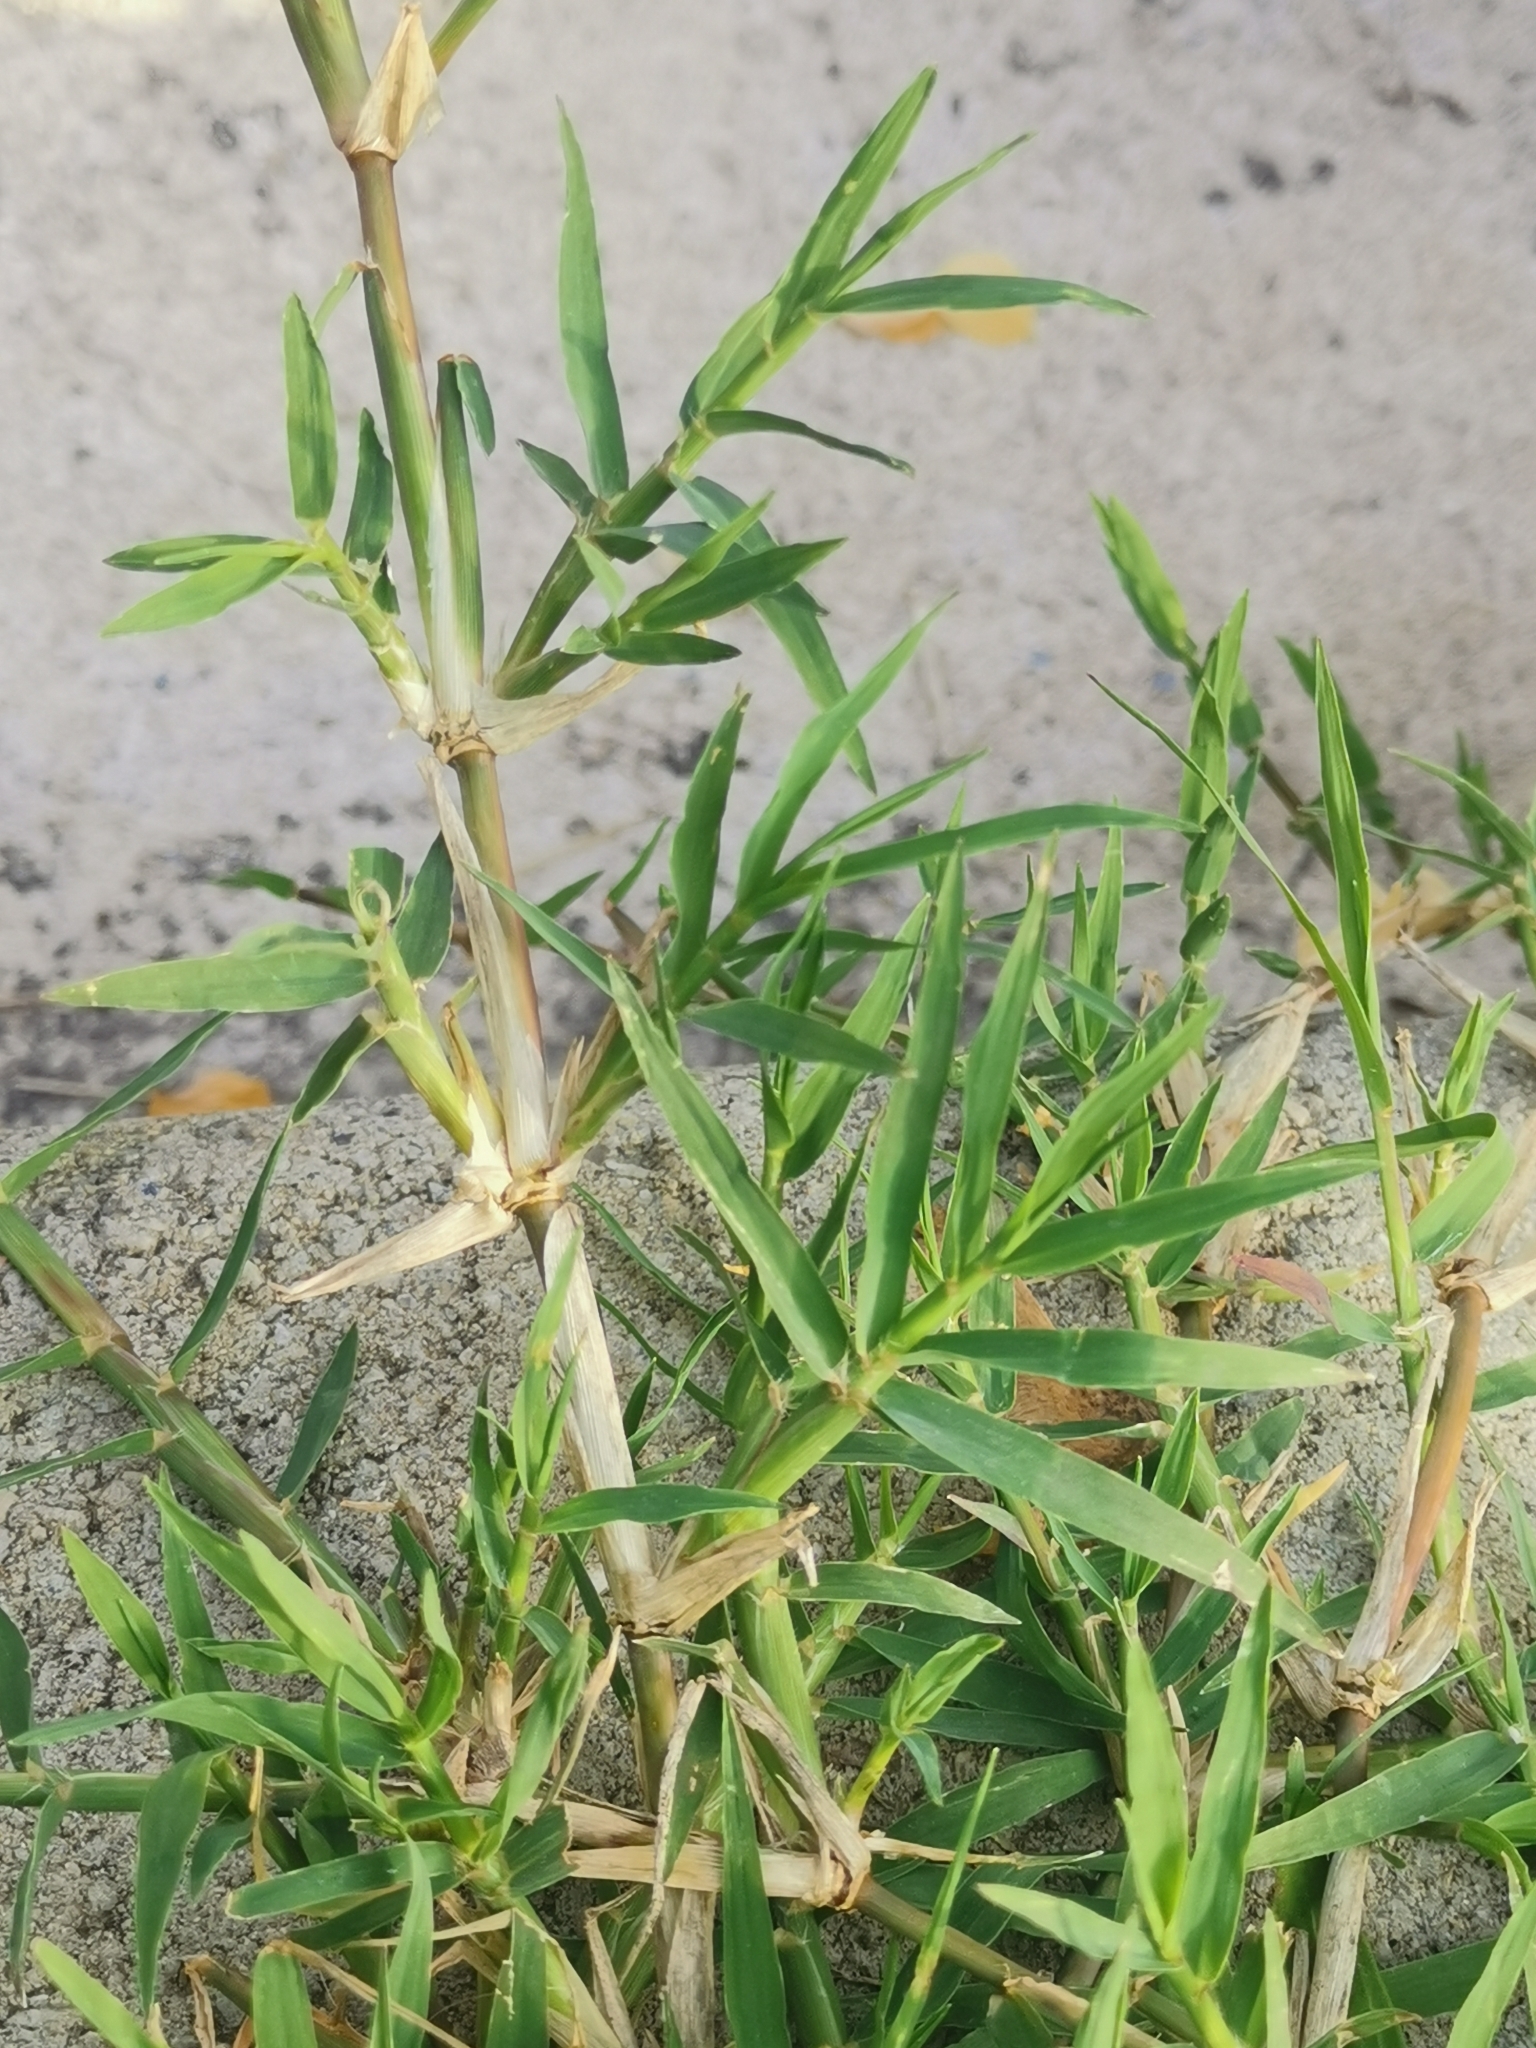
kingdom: Plantae
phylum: Tracheophyta
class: Liliopsida
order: Poales
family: Poaceae
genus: Cynodon
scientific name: Cynodon dactylon
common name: Bermuda grass
